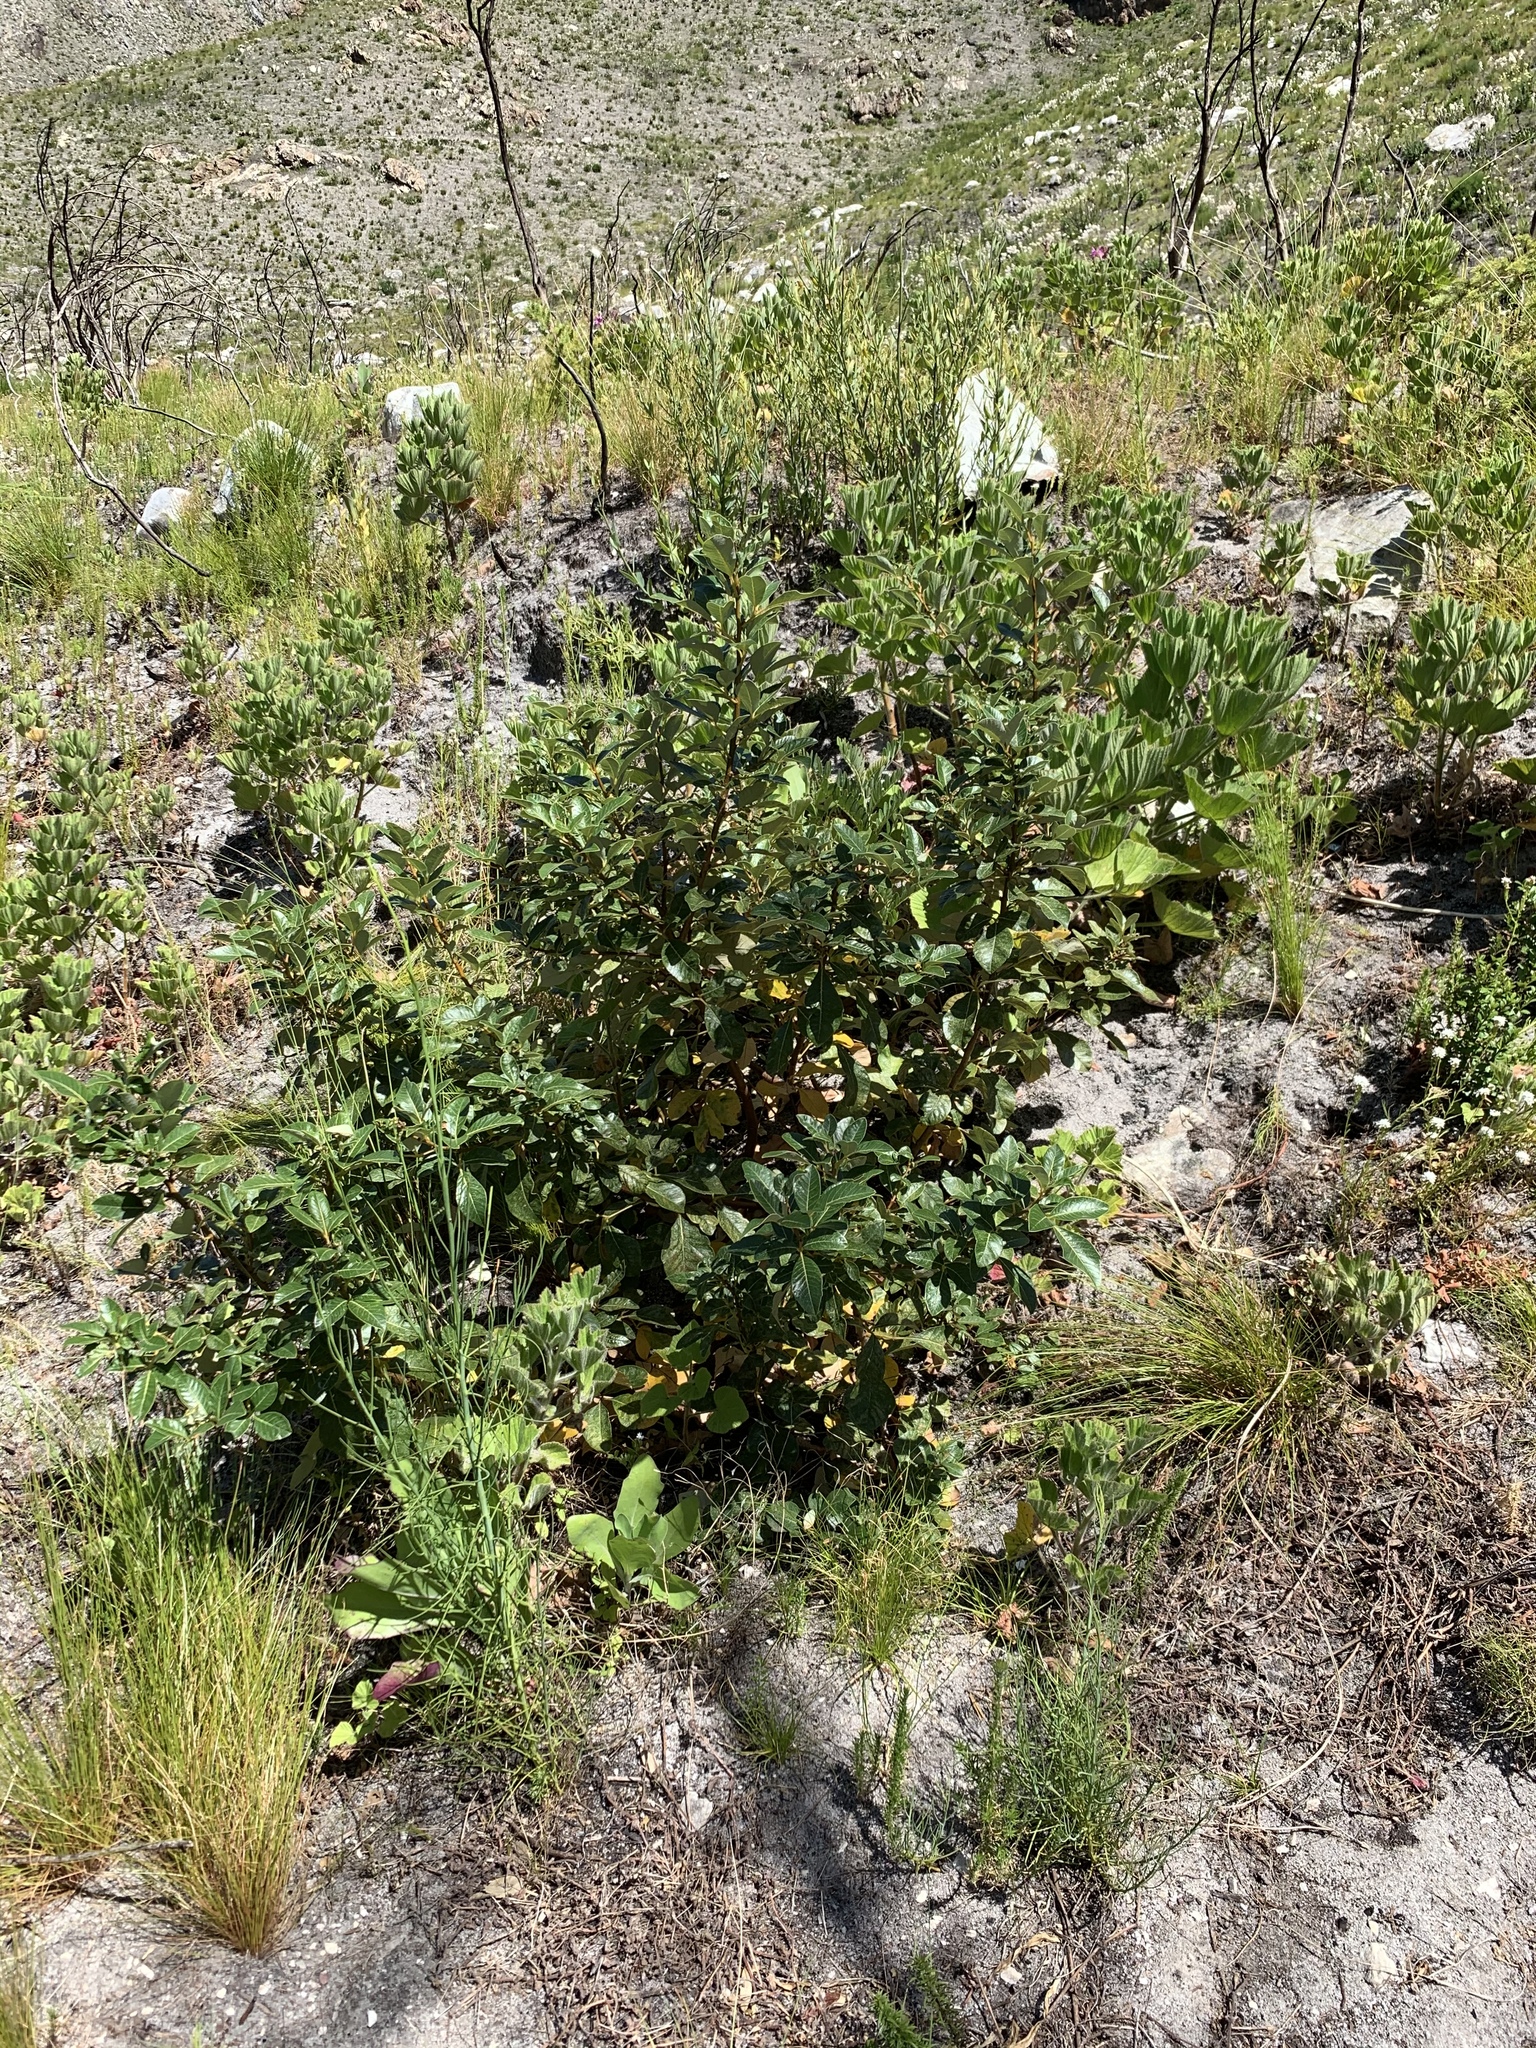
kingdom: Plantae
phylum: Tracheophyta
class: Magnoliopsida
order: Sapindales
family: Anacardiaceae
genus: Searsia
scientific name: Searsia tomentosa
